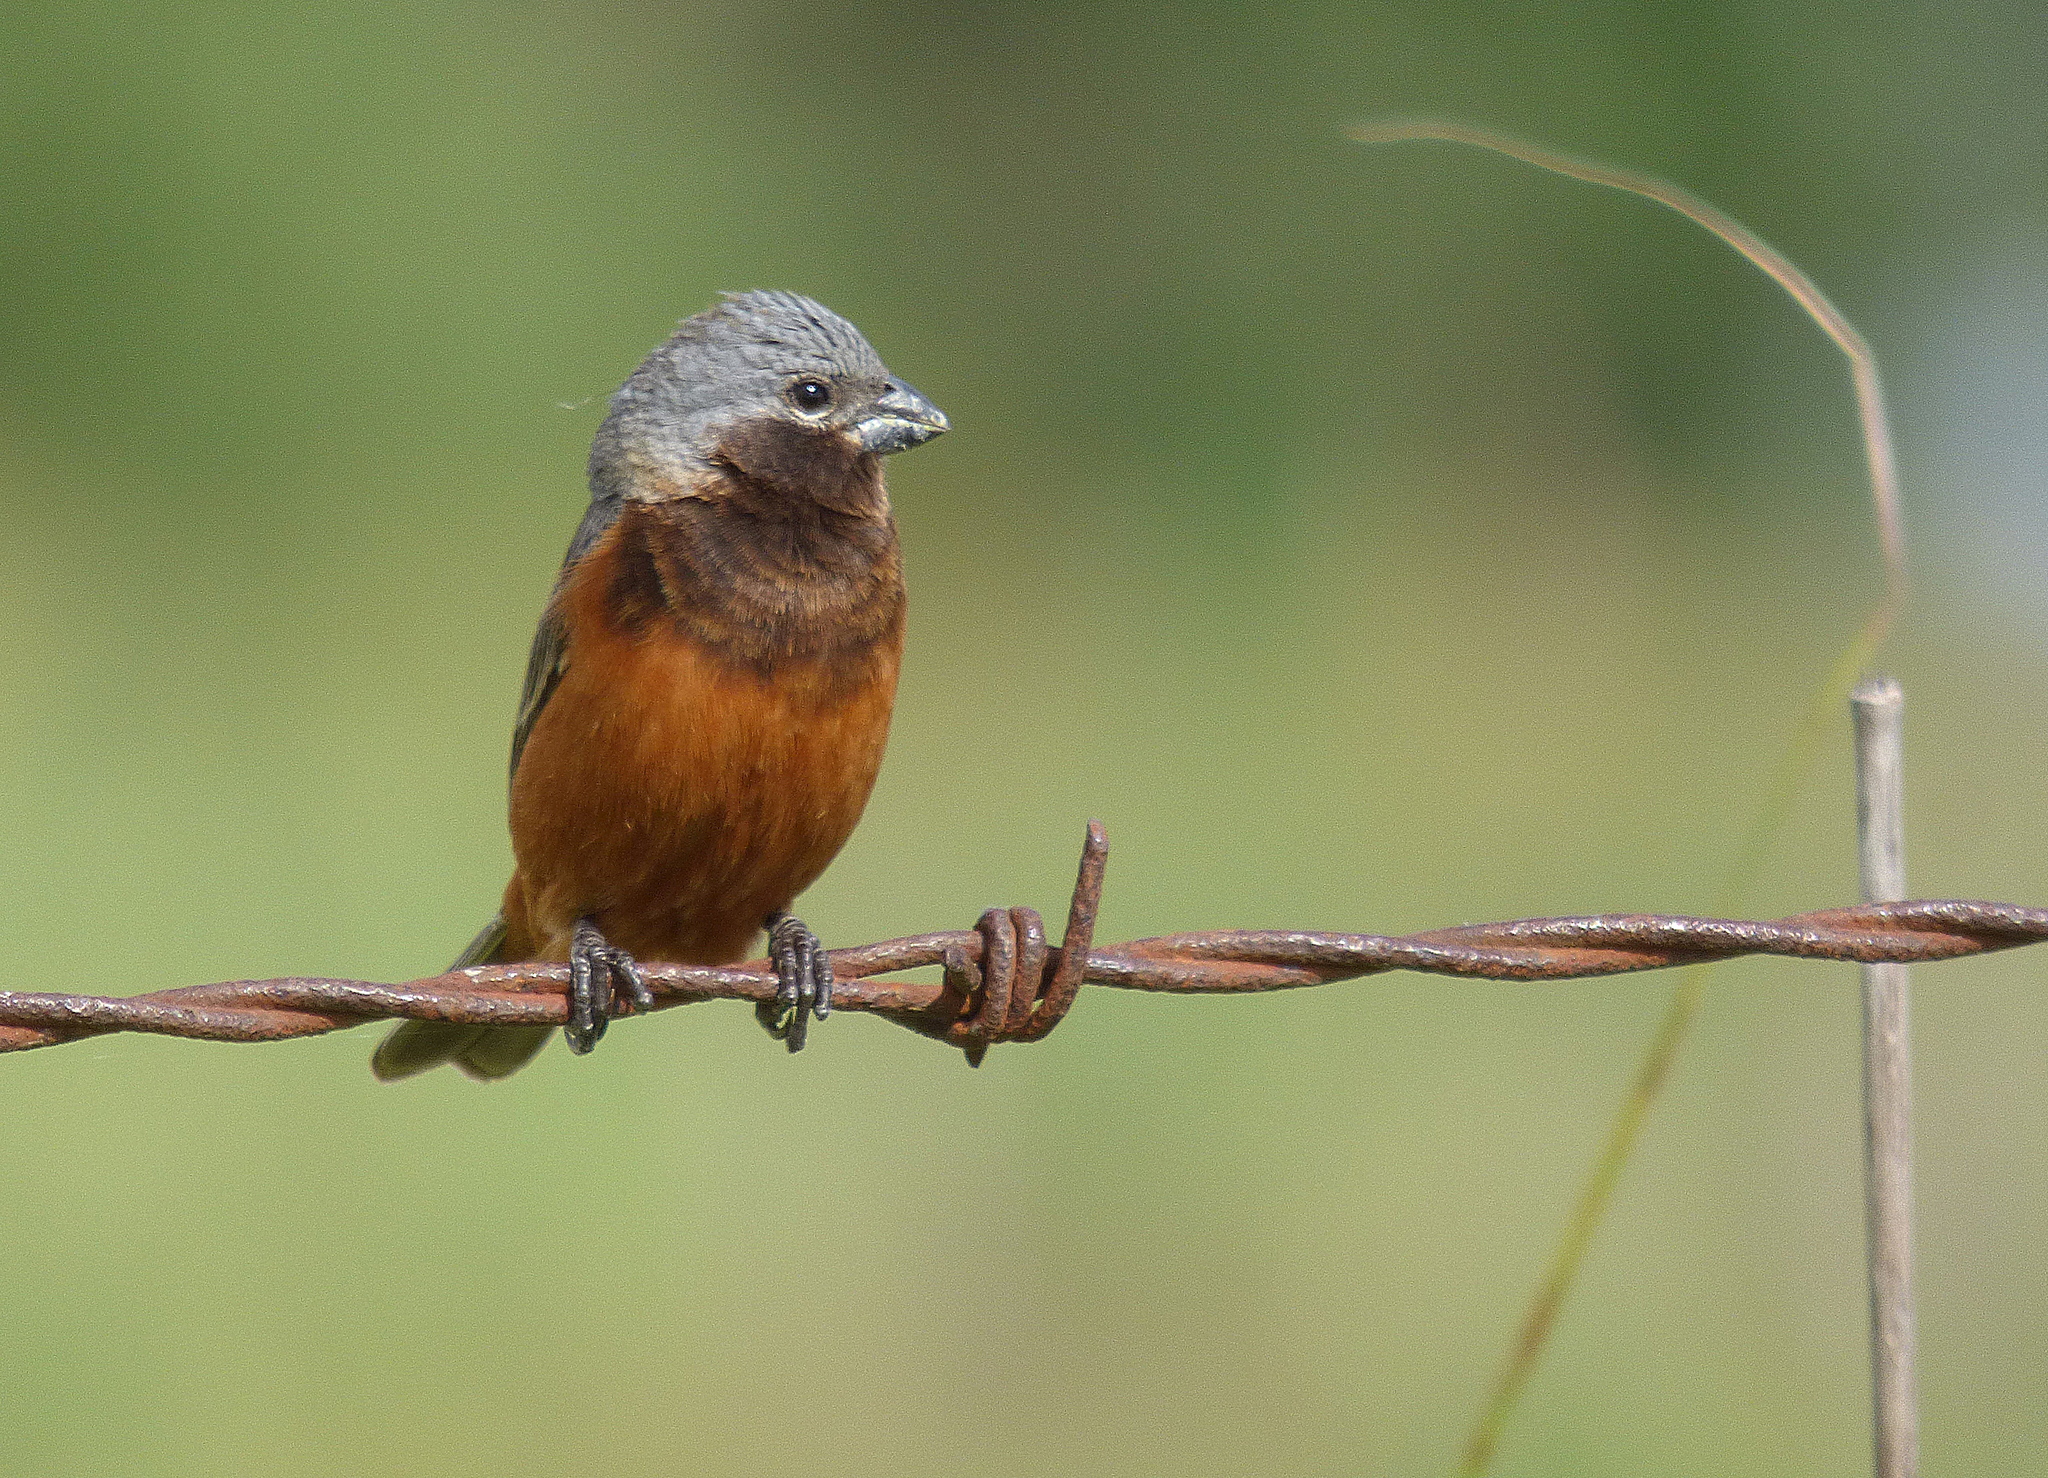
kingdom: Animalia
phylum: Chordata
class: Aves
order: Passeriformes
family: Thraupidae
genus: Sporophila
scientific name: Sporophila ruficollis
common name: Dark-throated seedeater
